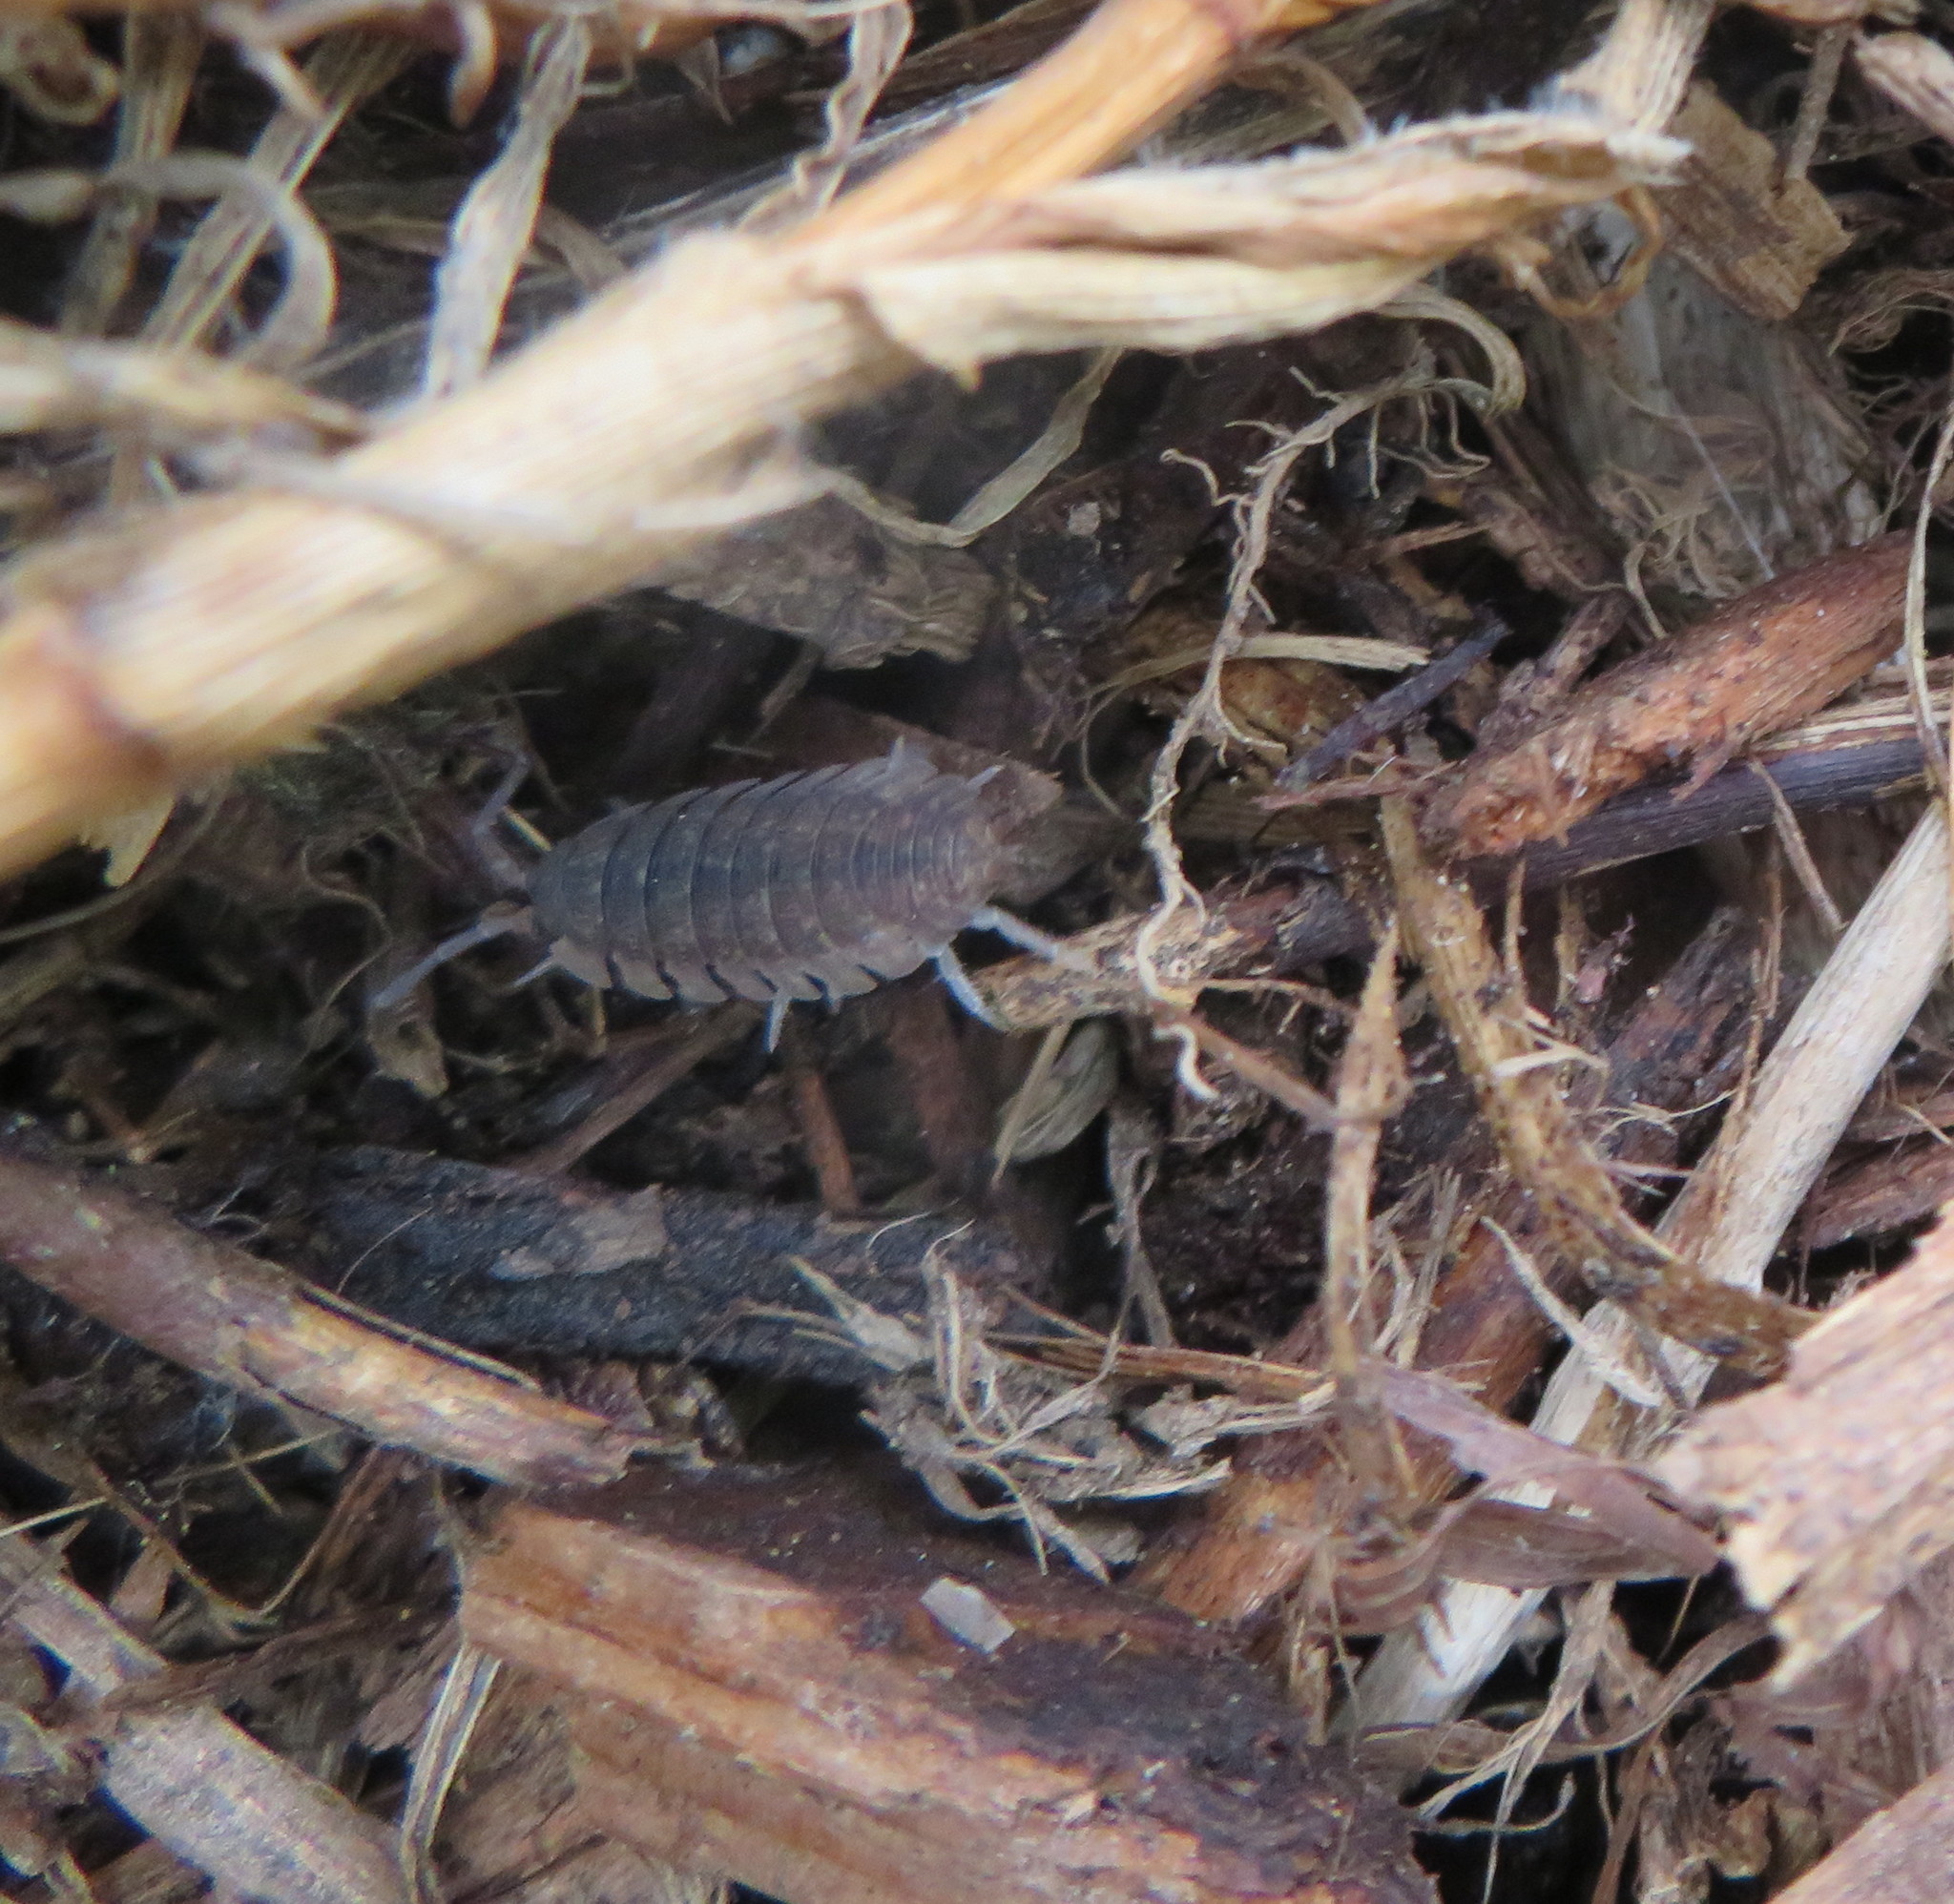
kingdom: Animalia
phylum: Arthropoda
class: Malacostraca
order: Isopoda
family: Porcellionidae
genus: Porcellio
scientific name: Porcellio scaber
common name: Common rough woodlouse
